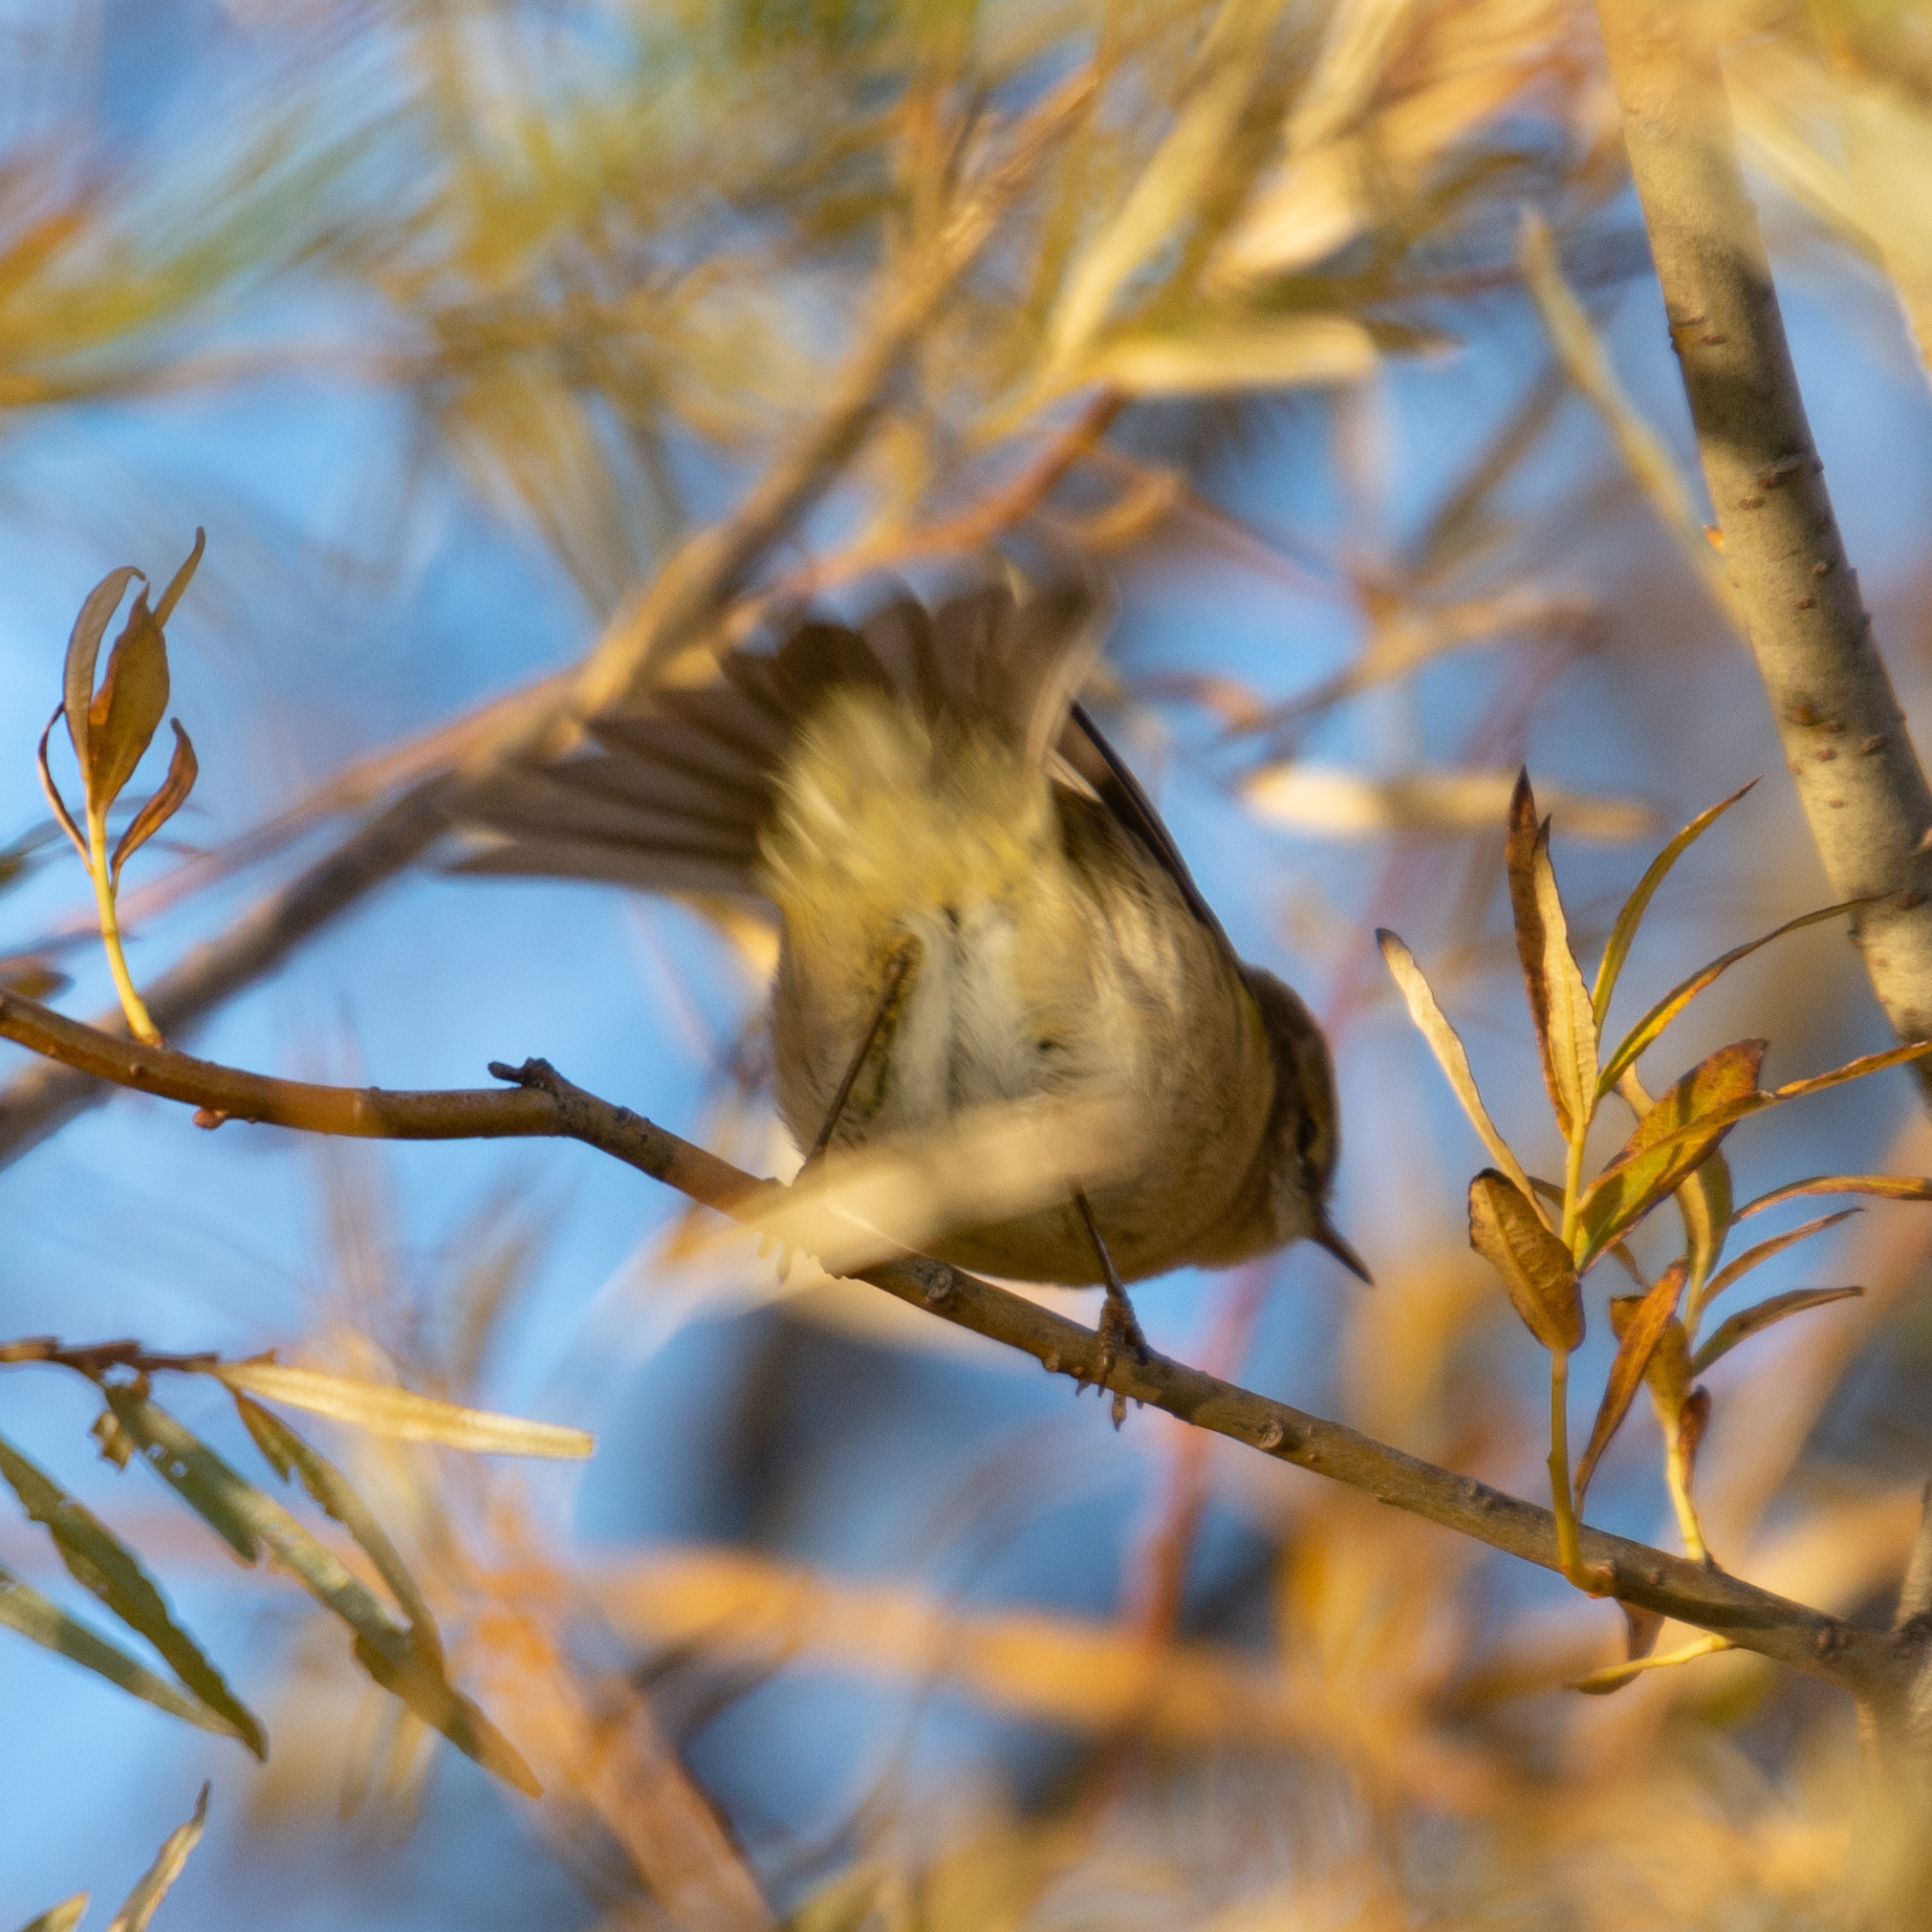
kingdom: Animalia
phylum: Chordata
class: Aves
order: Passeriformes
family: Phylloscopidae
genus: Phylloscopus
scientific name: Phylloscopus collybita
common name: Common chiffchaff
